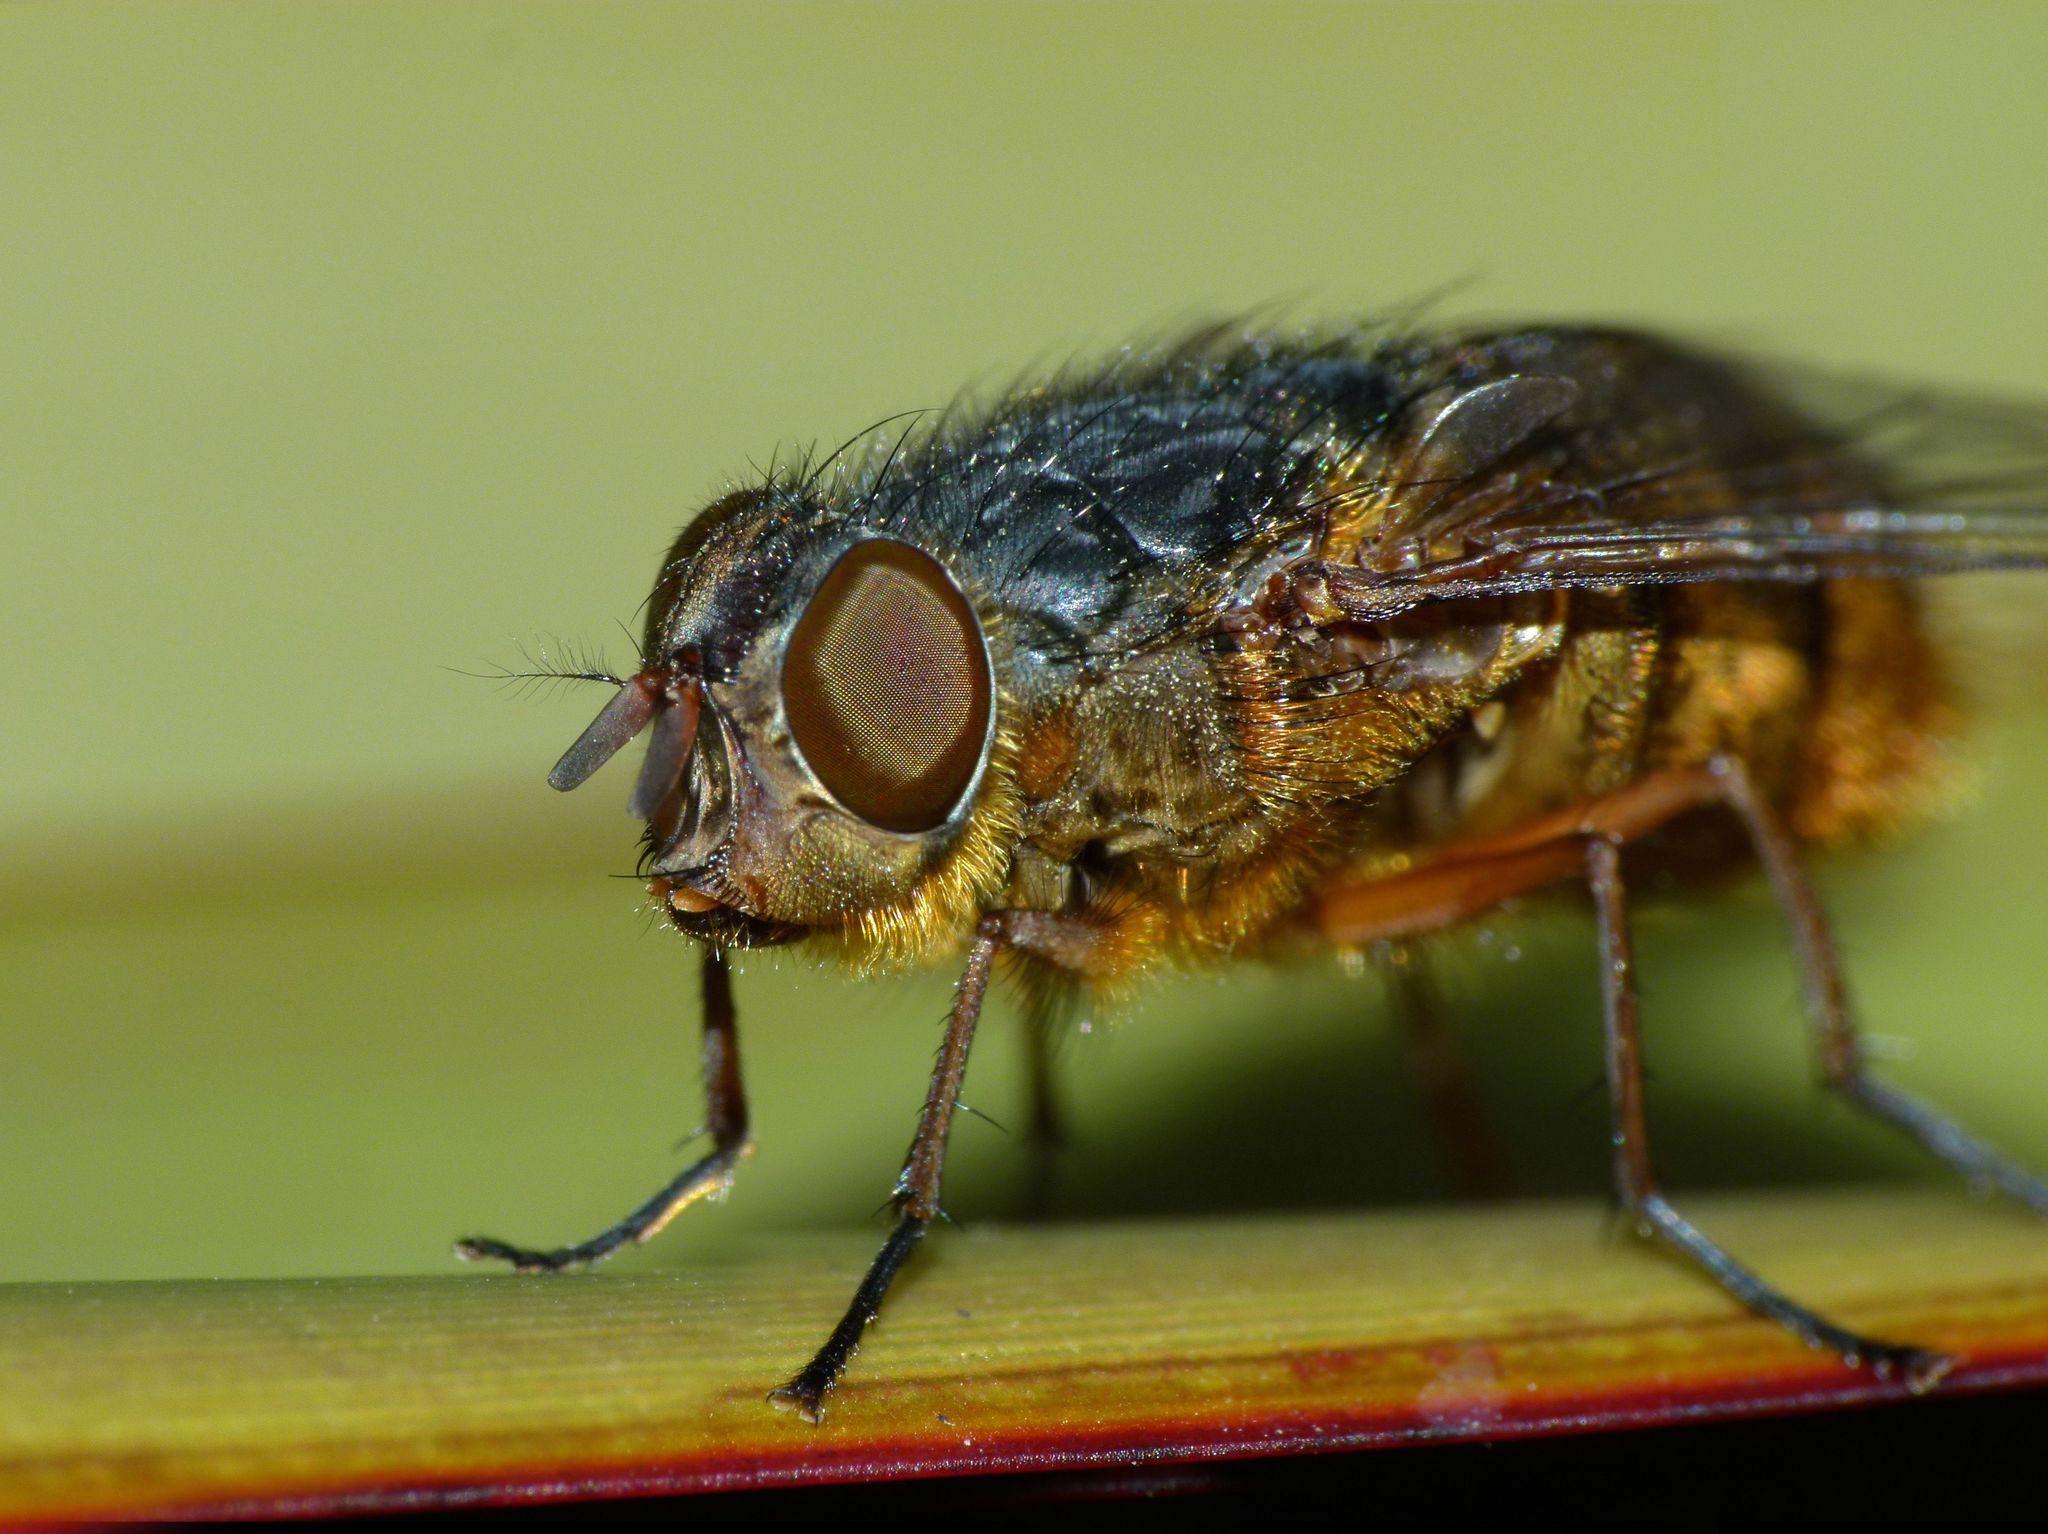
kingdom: Animalia
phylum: Arthropoda
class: Insecta
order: Diptera
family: Calliphoridae
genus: Calliphora
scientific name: Calliphora stygia
